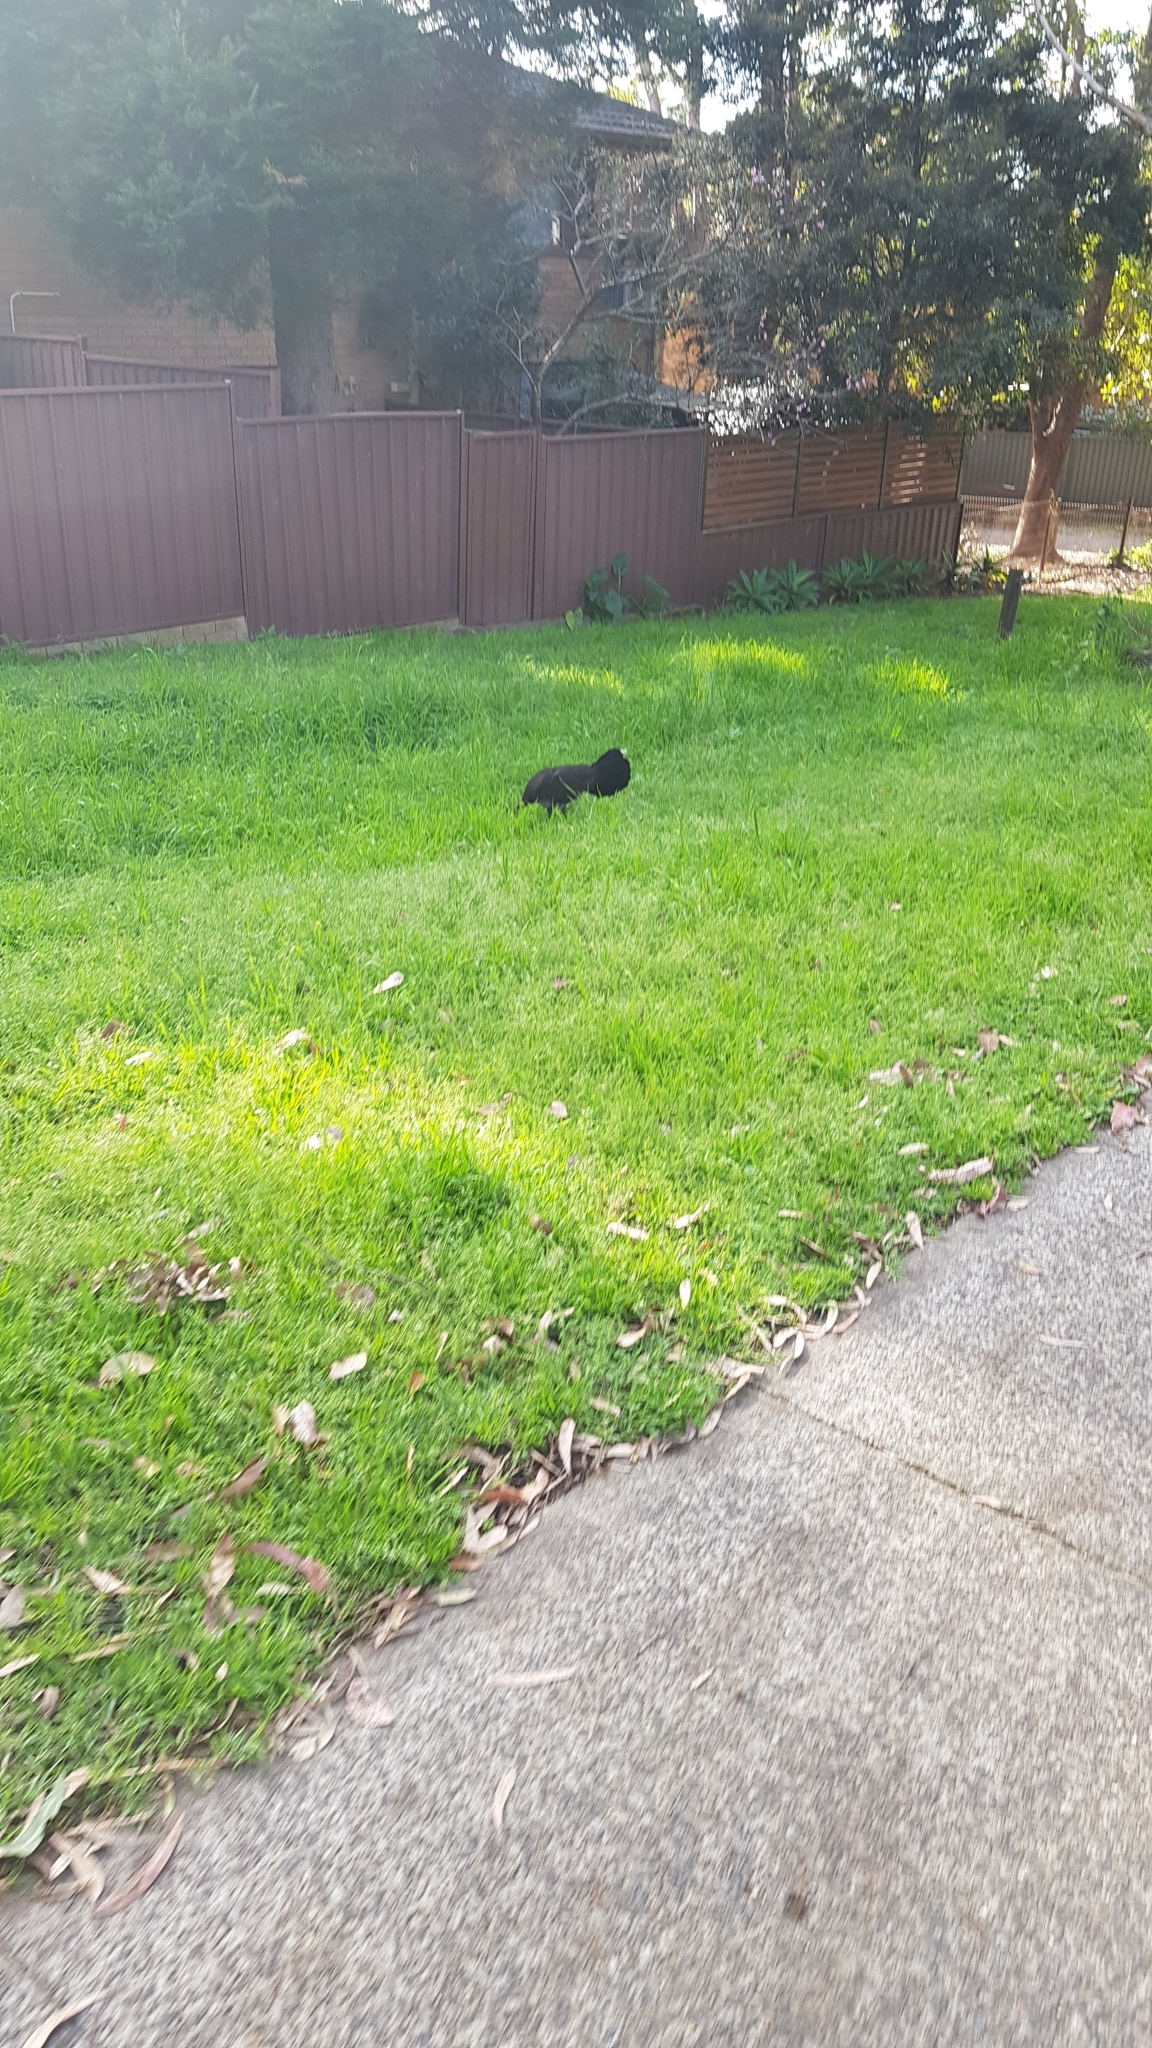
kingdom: Animalia
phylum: Chordata
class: Aves
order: Galliformes
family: Megapodiidae
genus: Alectura
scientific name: Alectura lathami
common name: Australian brushturkey
